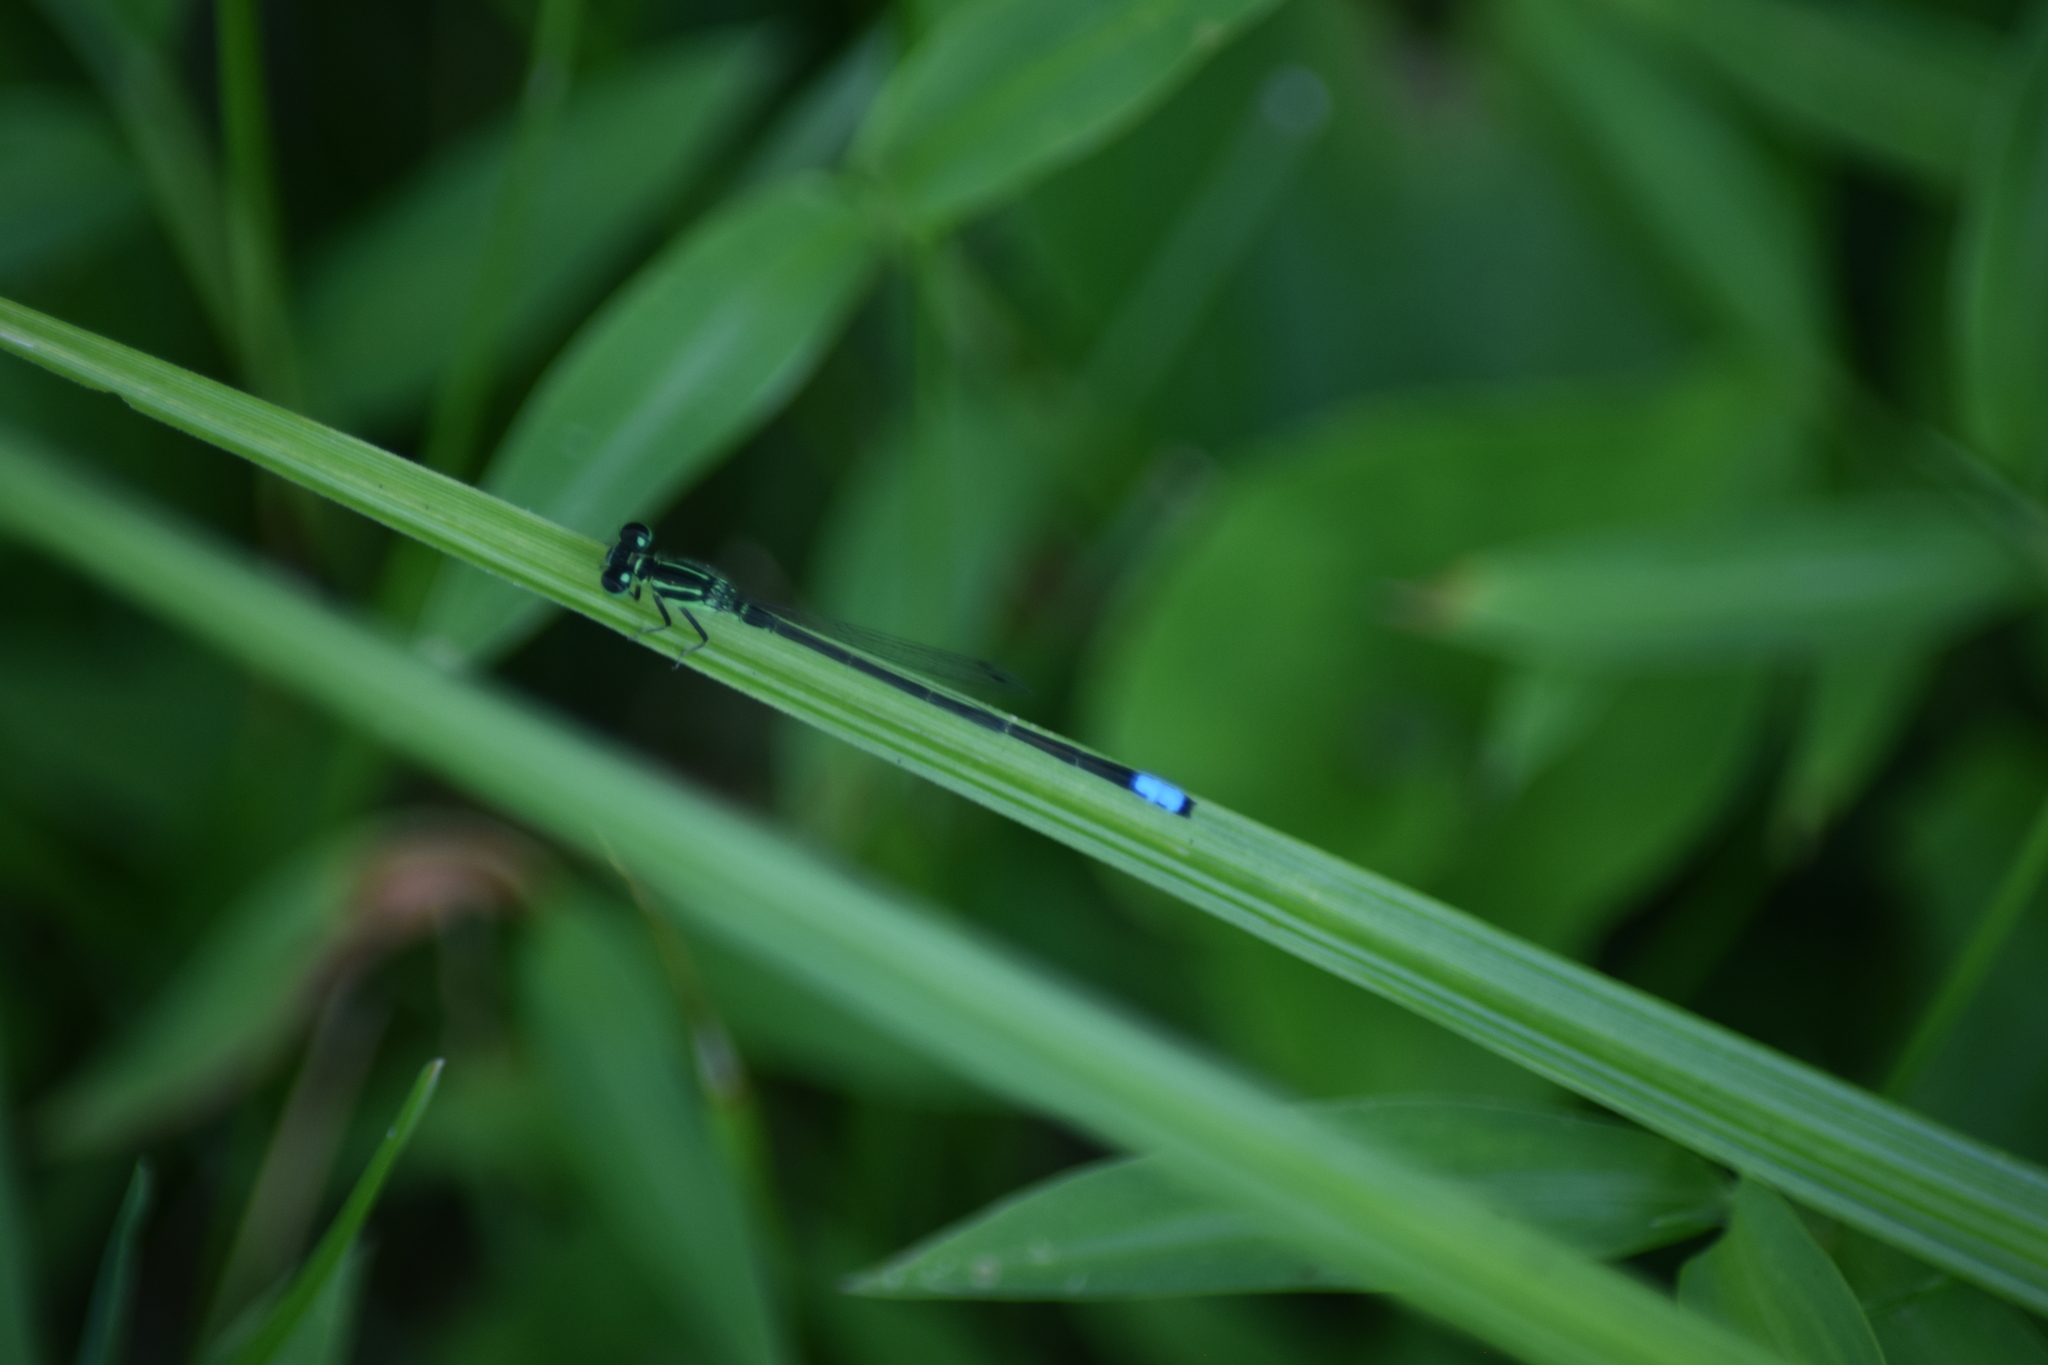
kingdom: Animalia
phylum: Arthropoda
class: Insecta
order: Odonata
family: Coenagrionidae
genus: Ischnura
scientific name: Ischnura verticalis
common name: Eastern forktail
